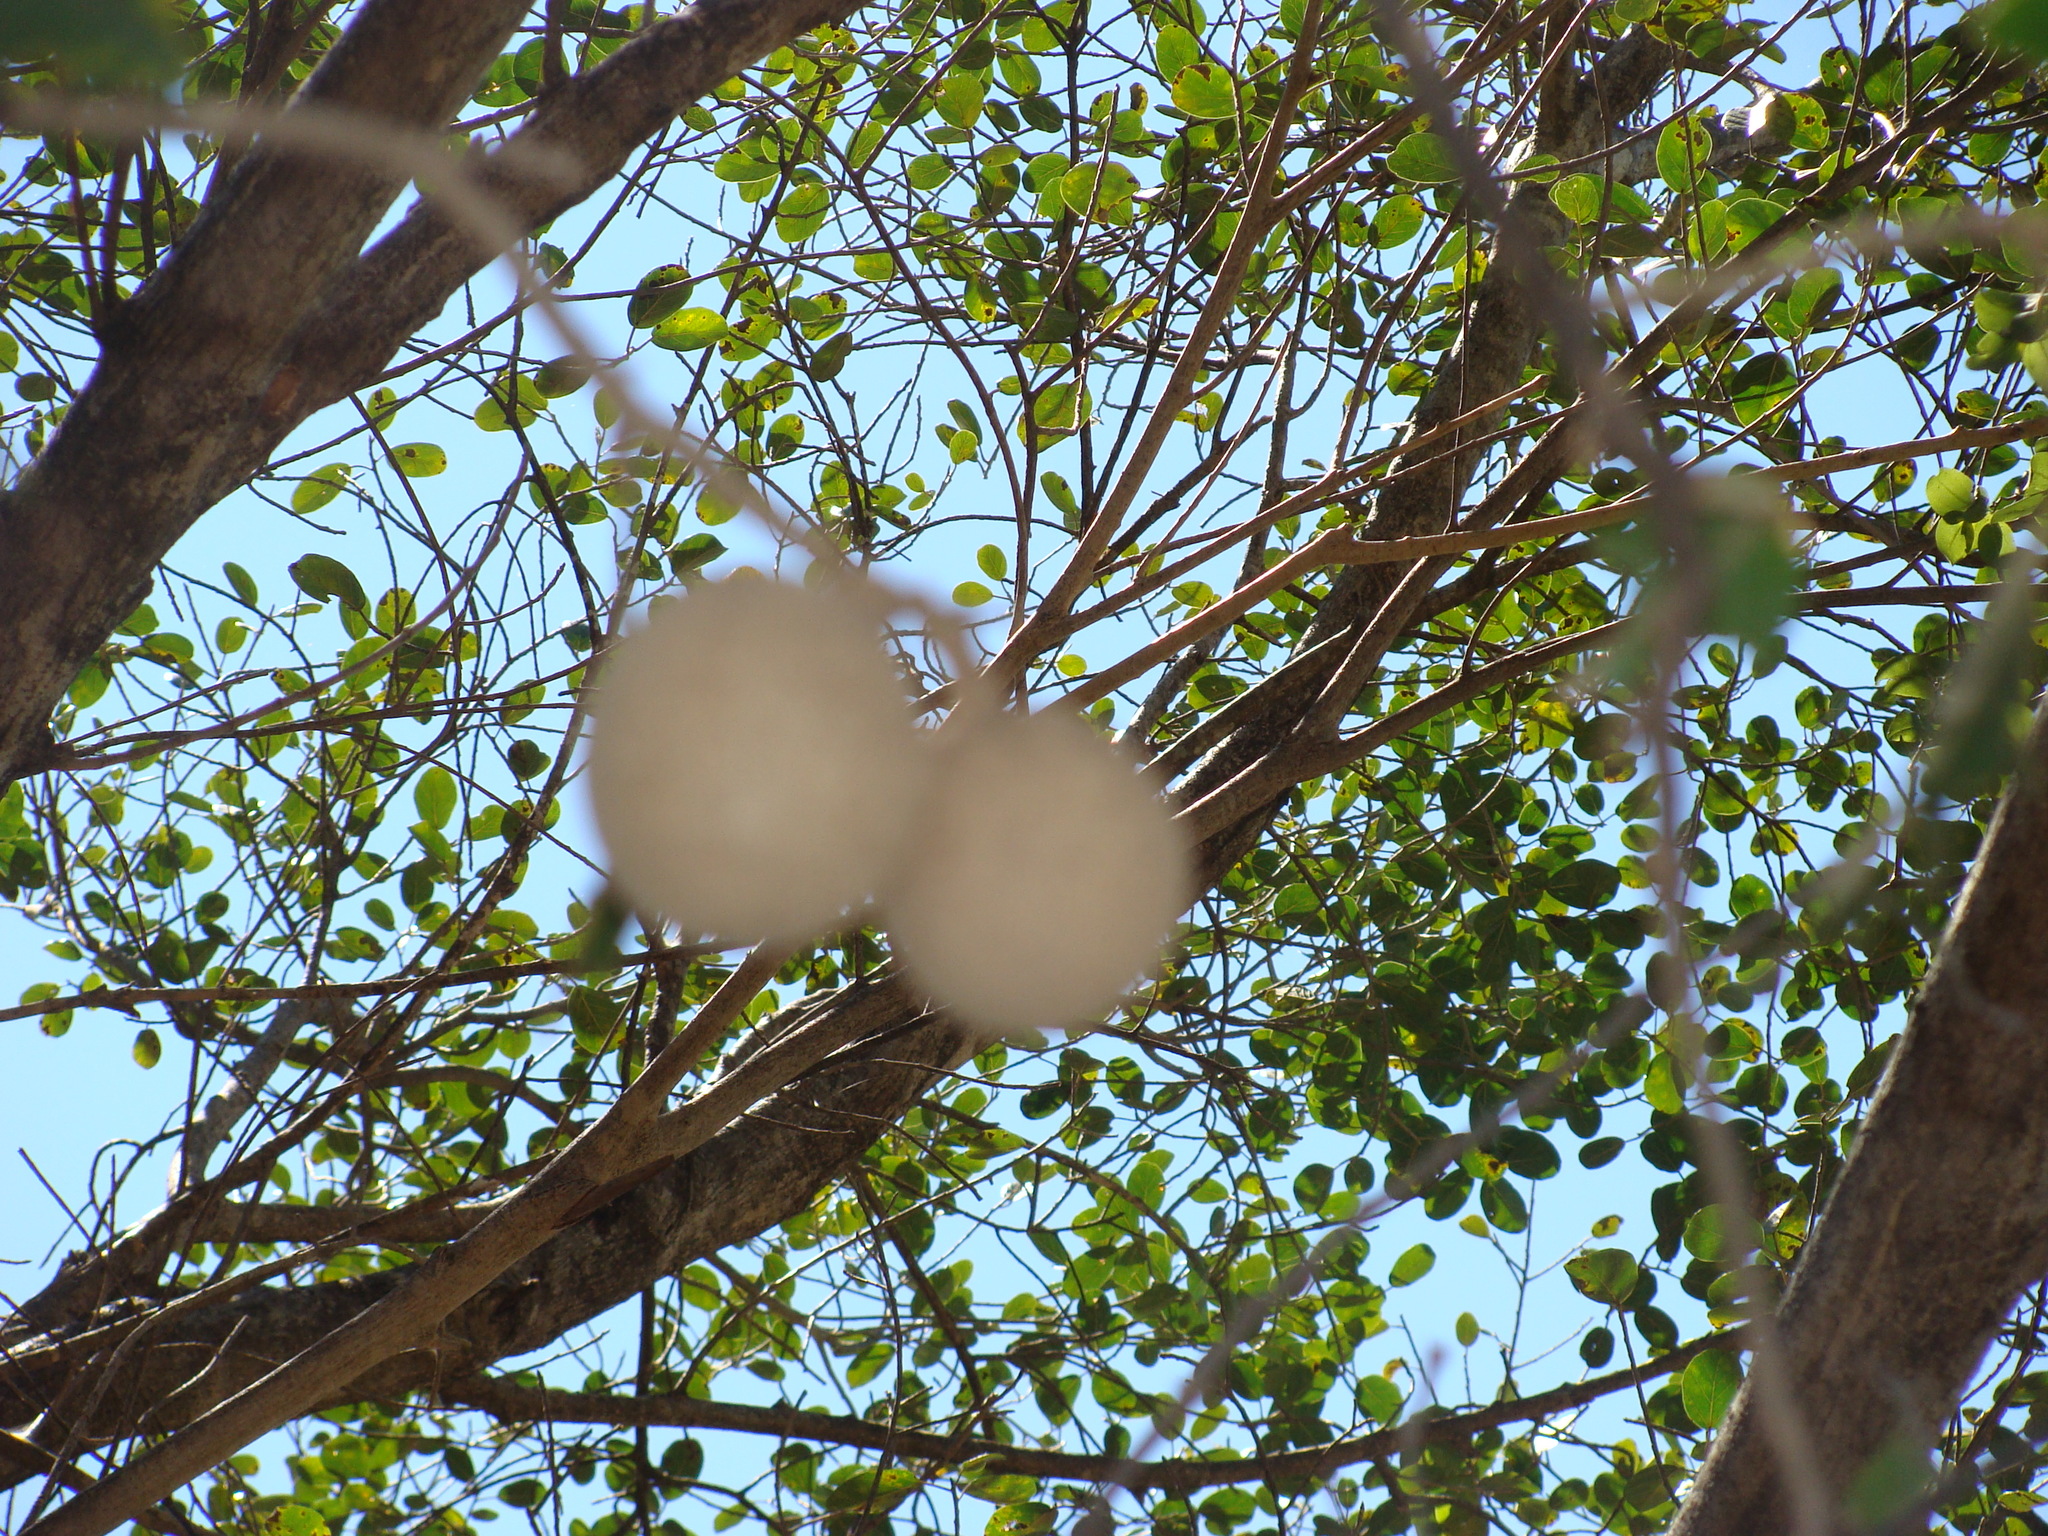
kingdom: Plantae
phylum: Tracheophyta
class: Magnoliopsida
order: Brassicales
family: Capparaceae
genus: Morisonia
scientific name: Morisonia americana
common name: Wild mesple
